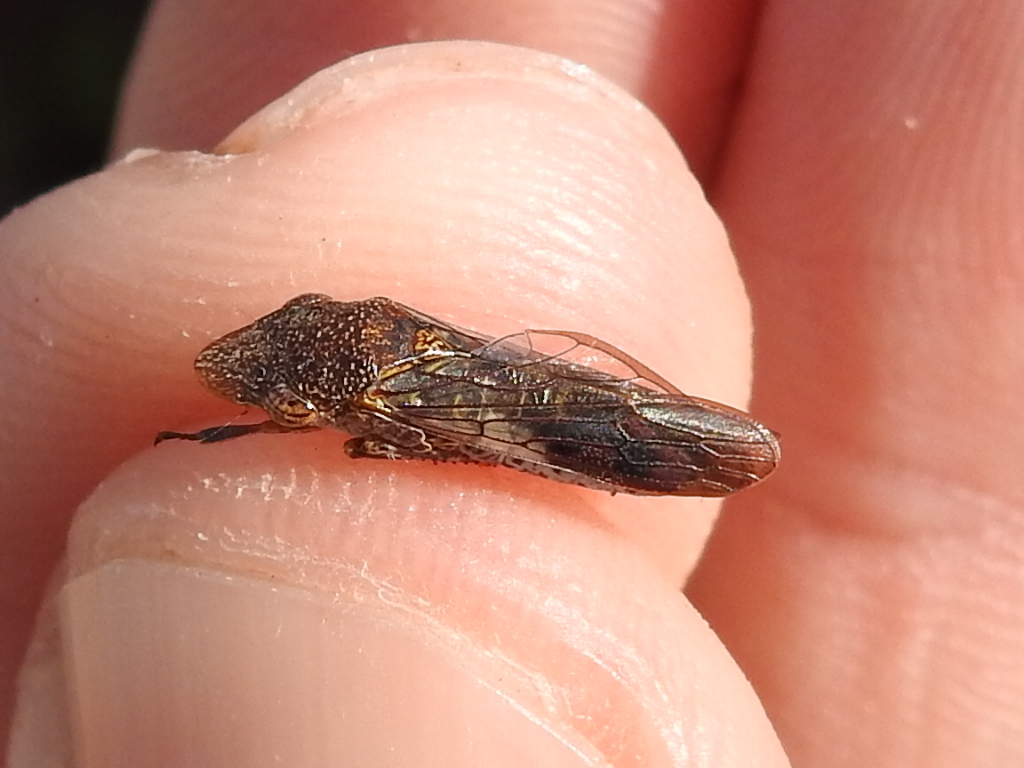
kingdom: Animalia
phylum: Arthropoda
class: Insecta
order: Hemiptera
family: Cicadellidae
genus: Homalodisca
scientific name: Homalodisca vitripennis
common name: Glassy-winged sharpshooter
